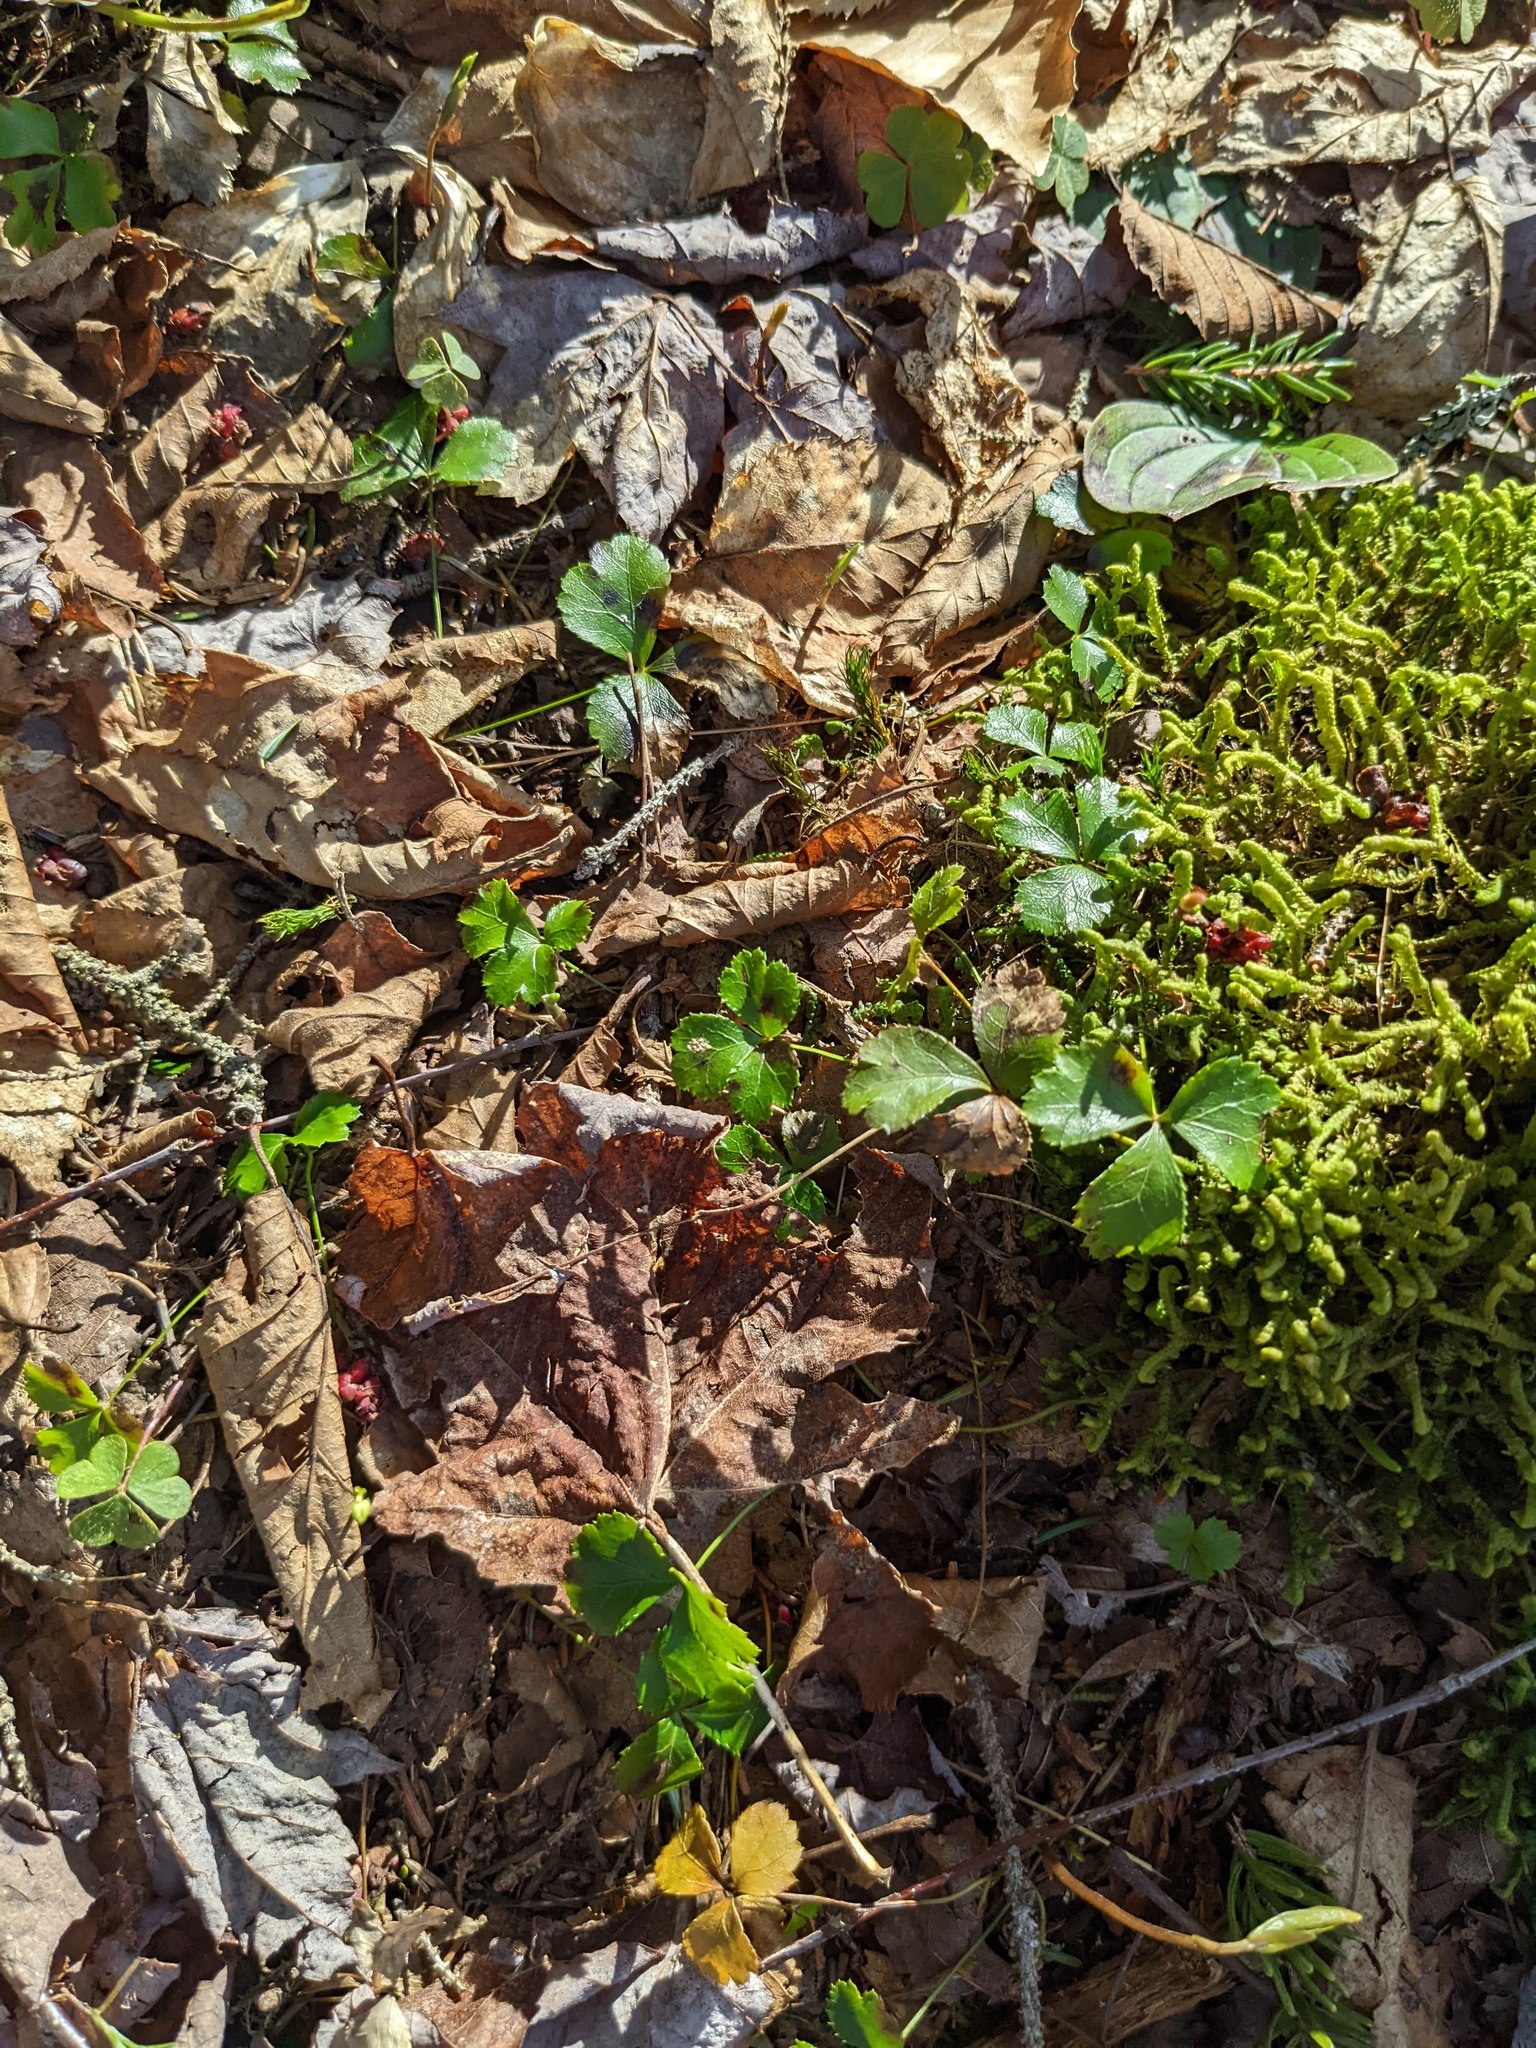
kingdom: Plantae
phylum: Tracheophyta
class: Magnoliopsida
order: Ranunculales
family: Ranunculaceae
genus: Coptis
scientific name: Coptis trifolia
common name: Canker-root
